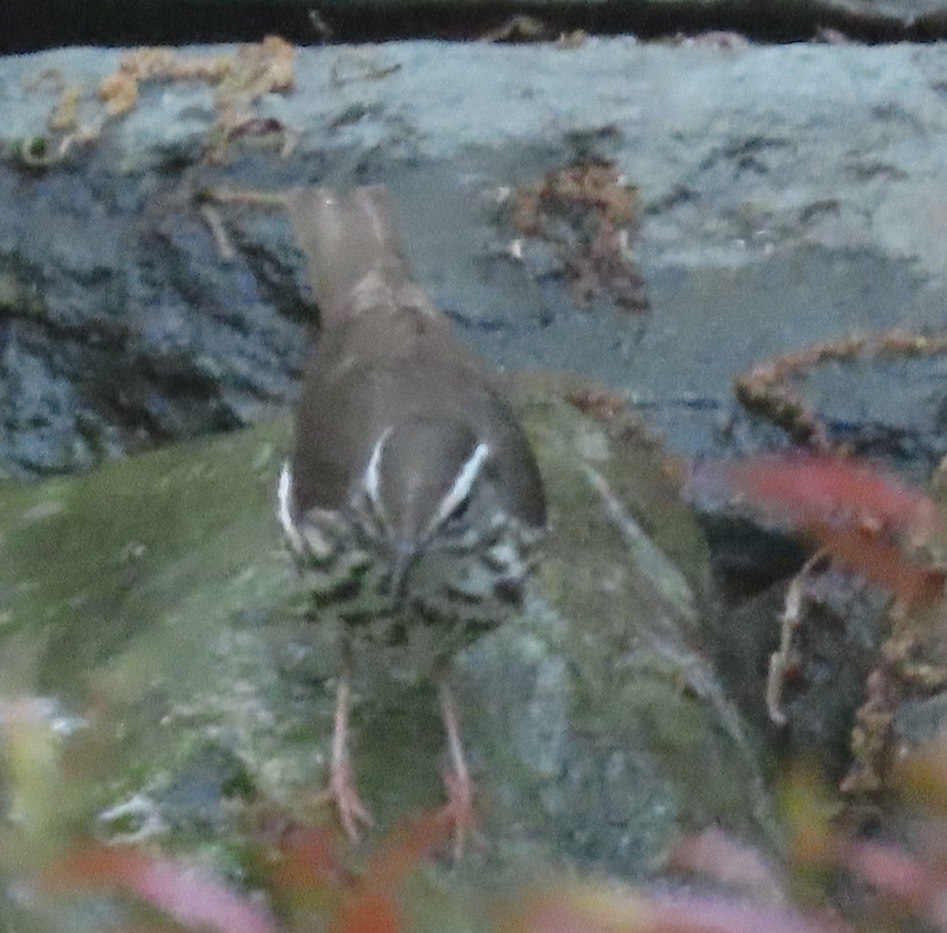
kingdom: Animalia
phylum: Chordata
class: Aves
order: Passeriformes
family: Parulidae
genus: Parkesia
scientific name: Parkesia motacilla
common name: Louisiana waterthrush
